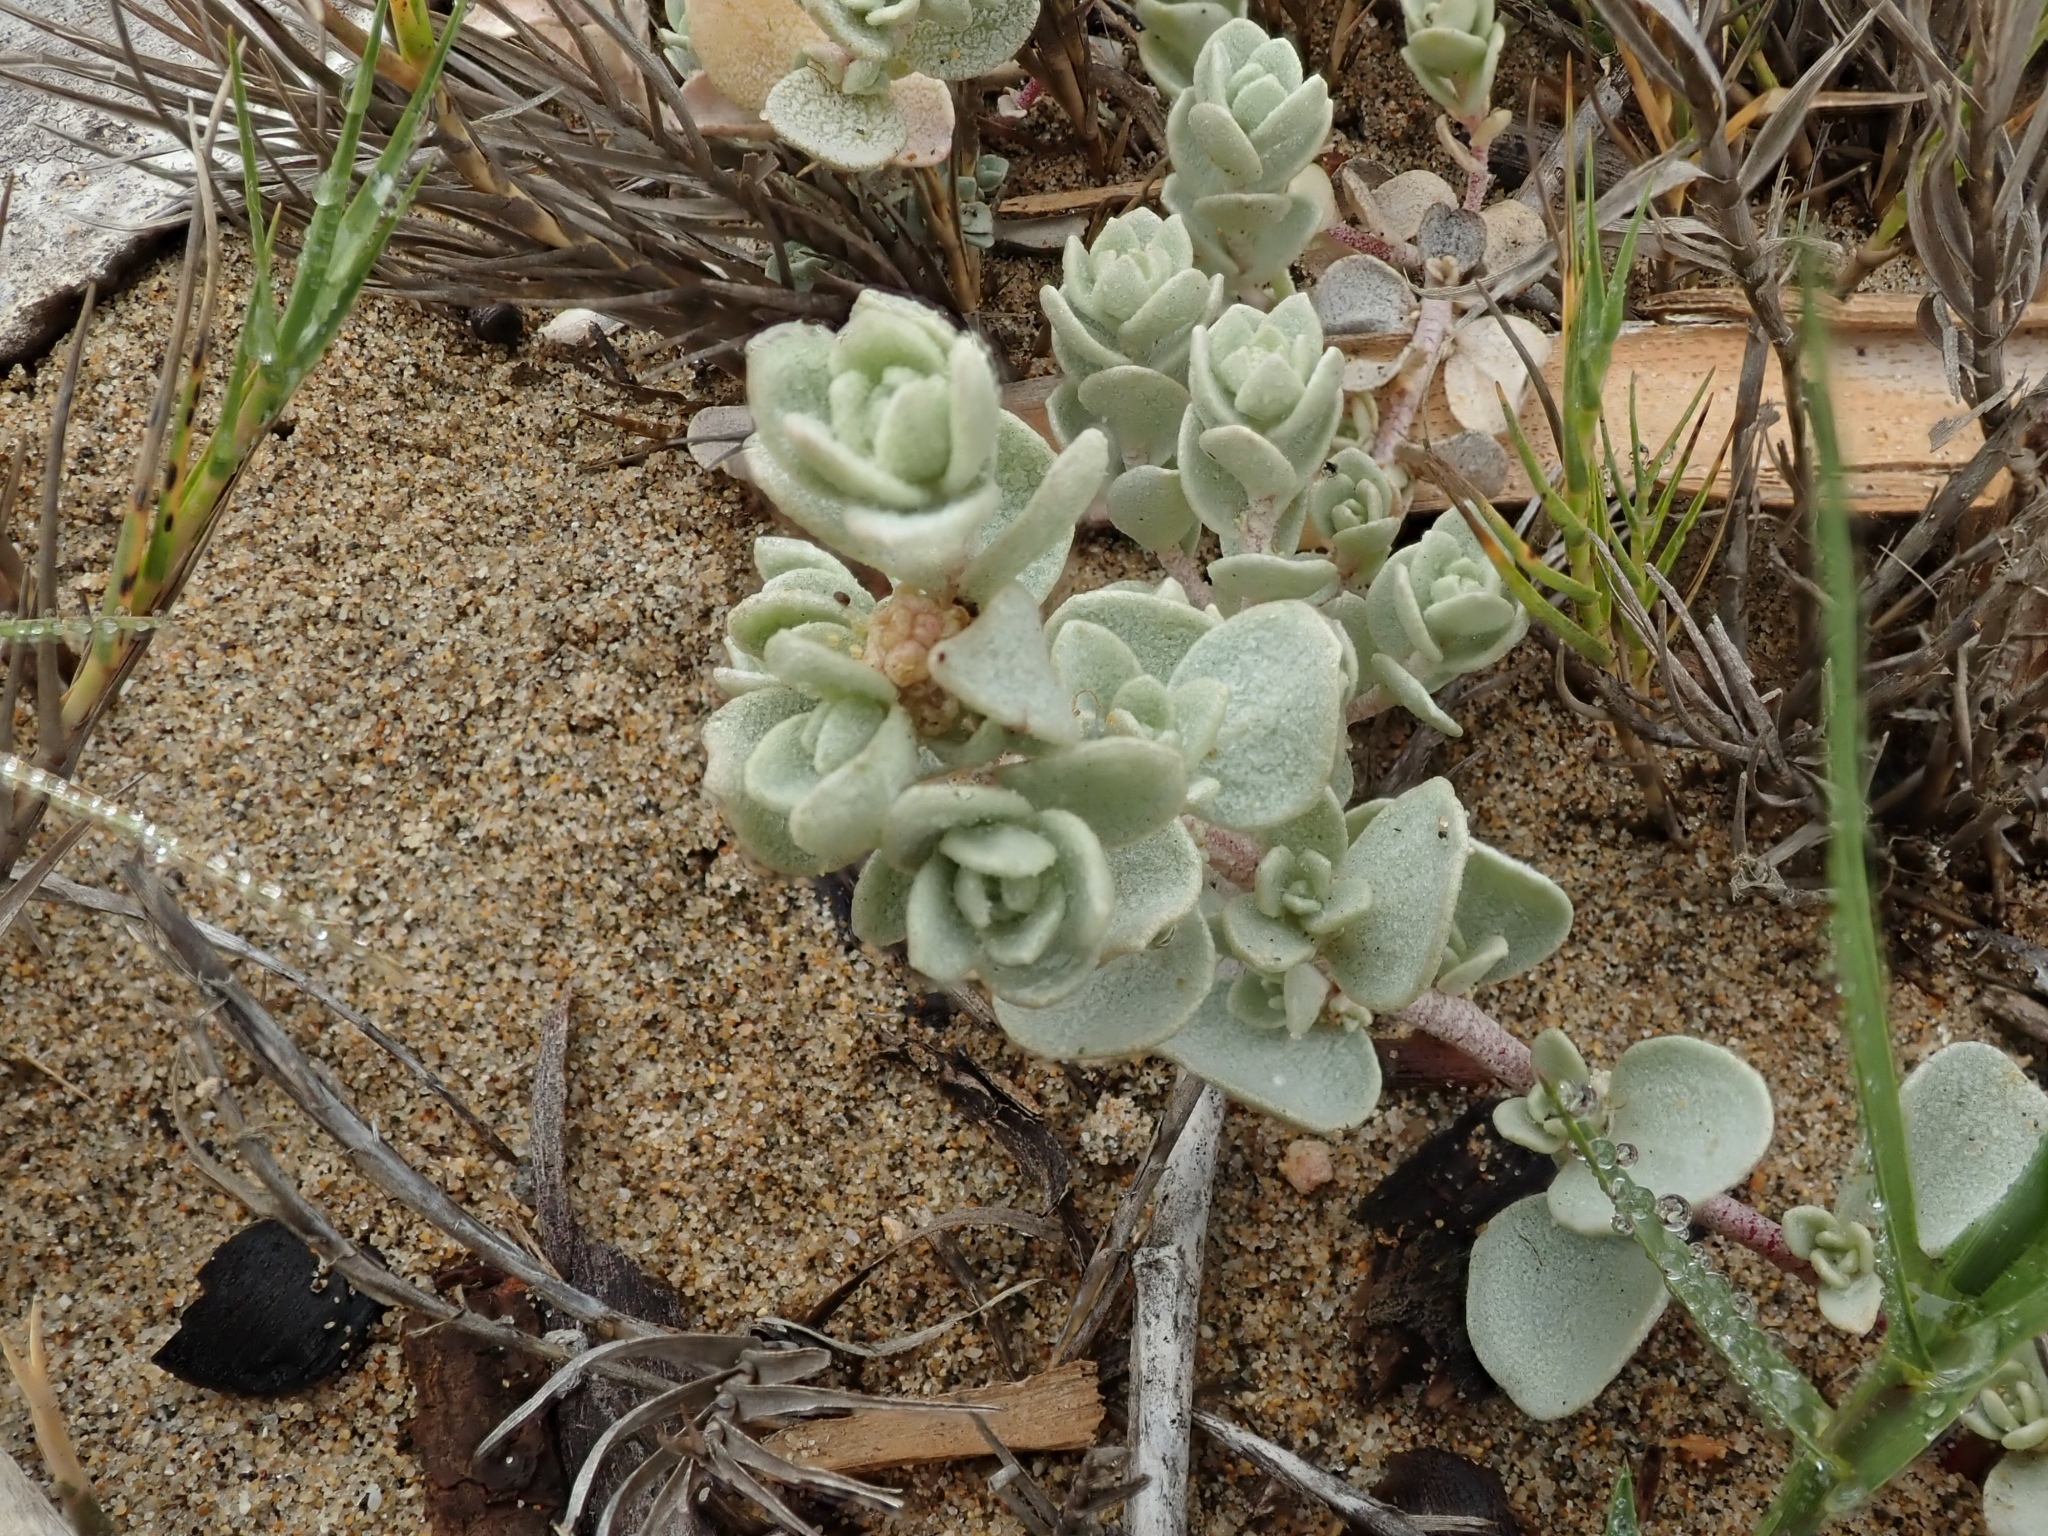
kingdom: Plantae
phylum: Tracheophyta
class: Magnoliopsida
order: Caryophyllales
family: Amaranthaceae
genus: Atriplex
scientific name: Atriplex leucophylla
